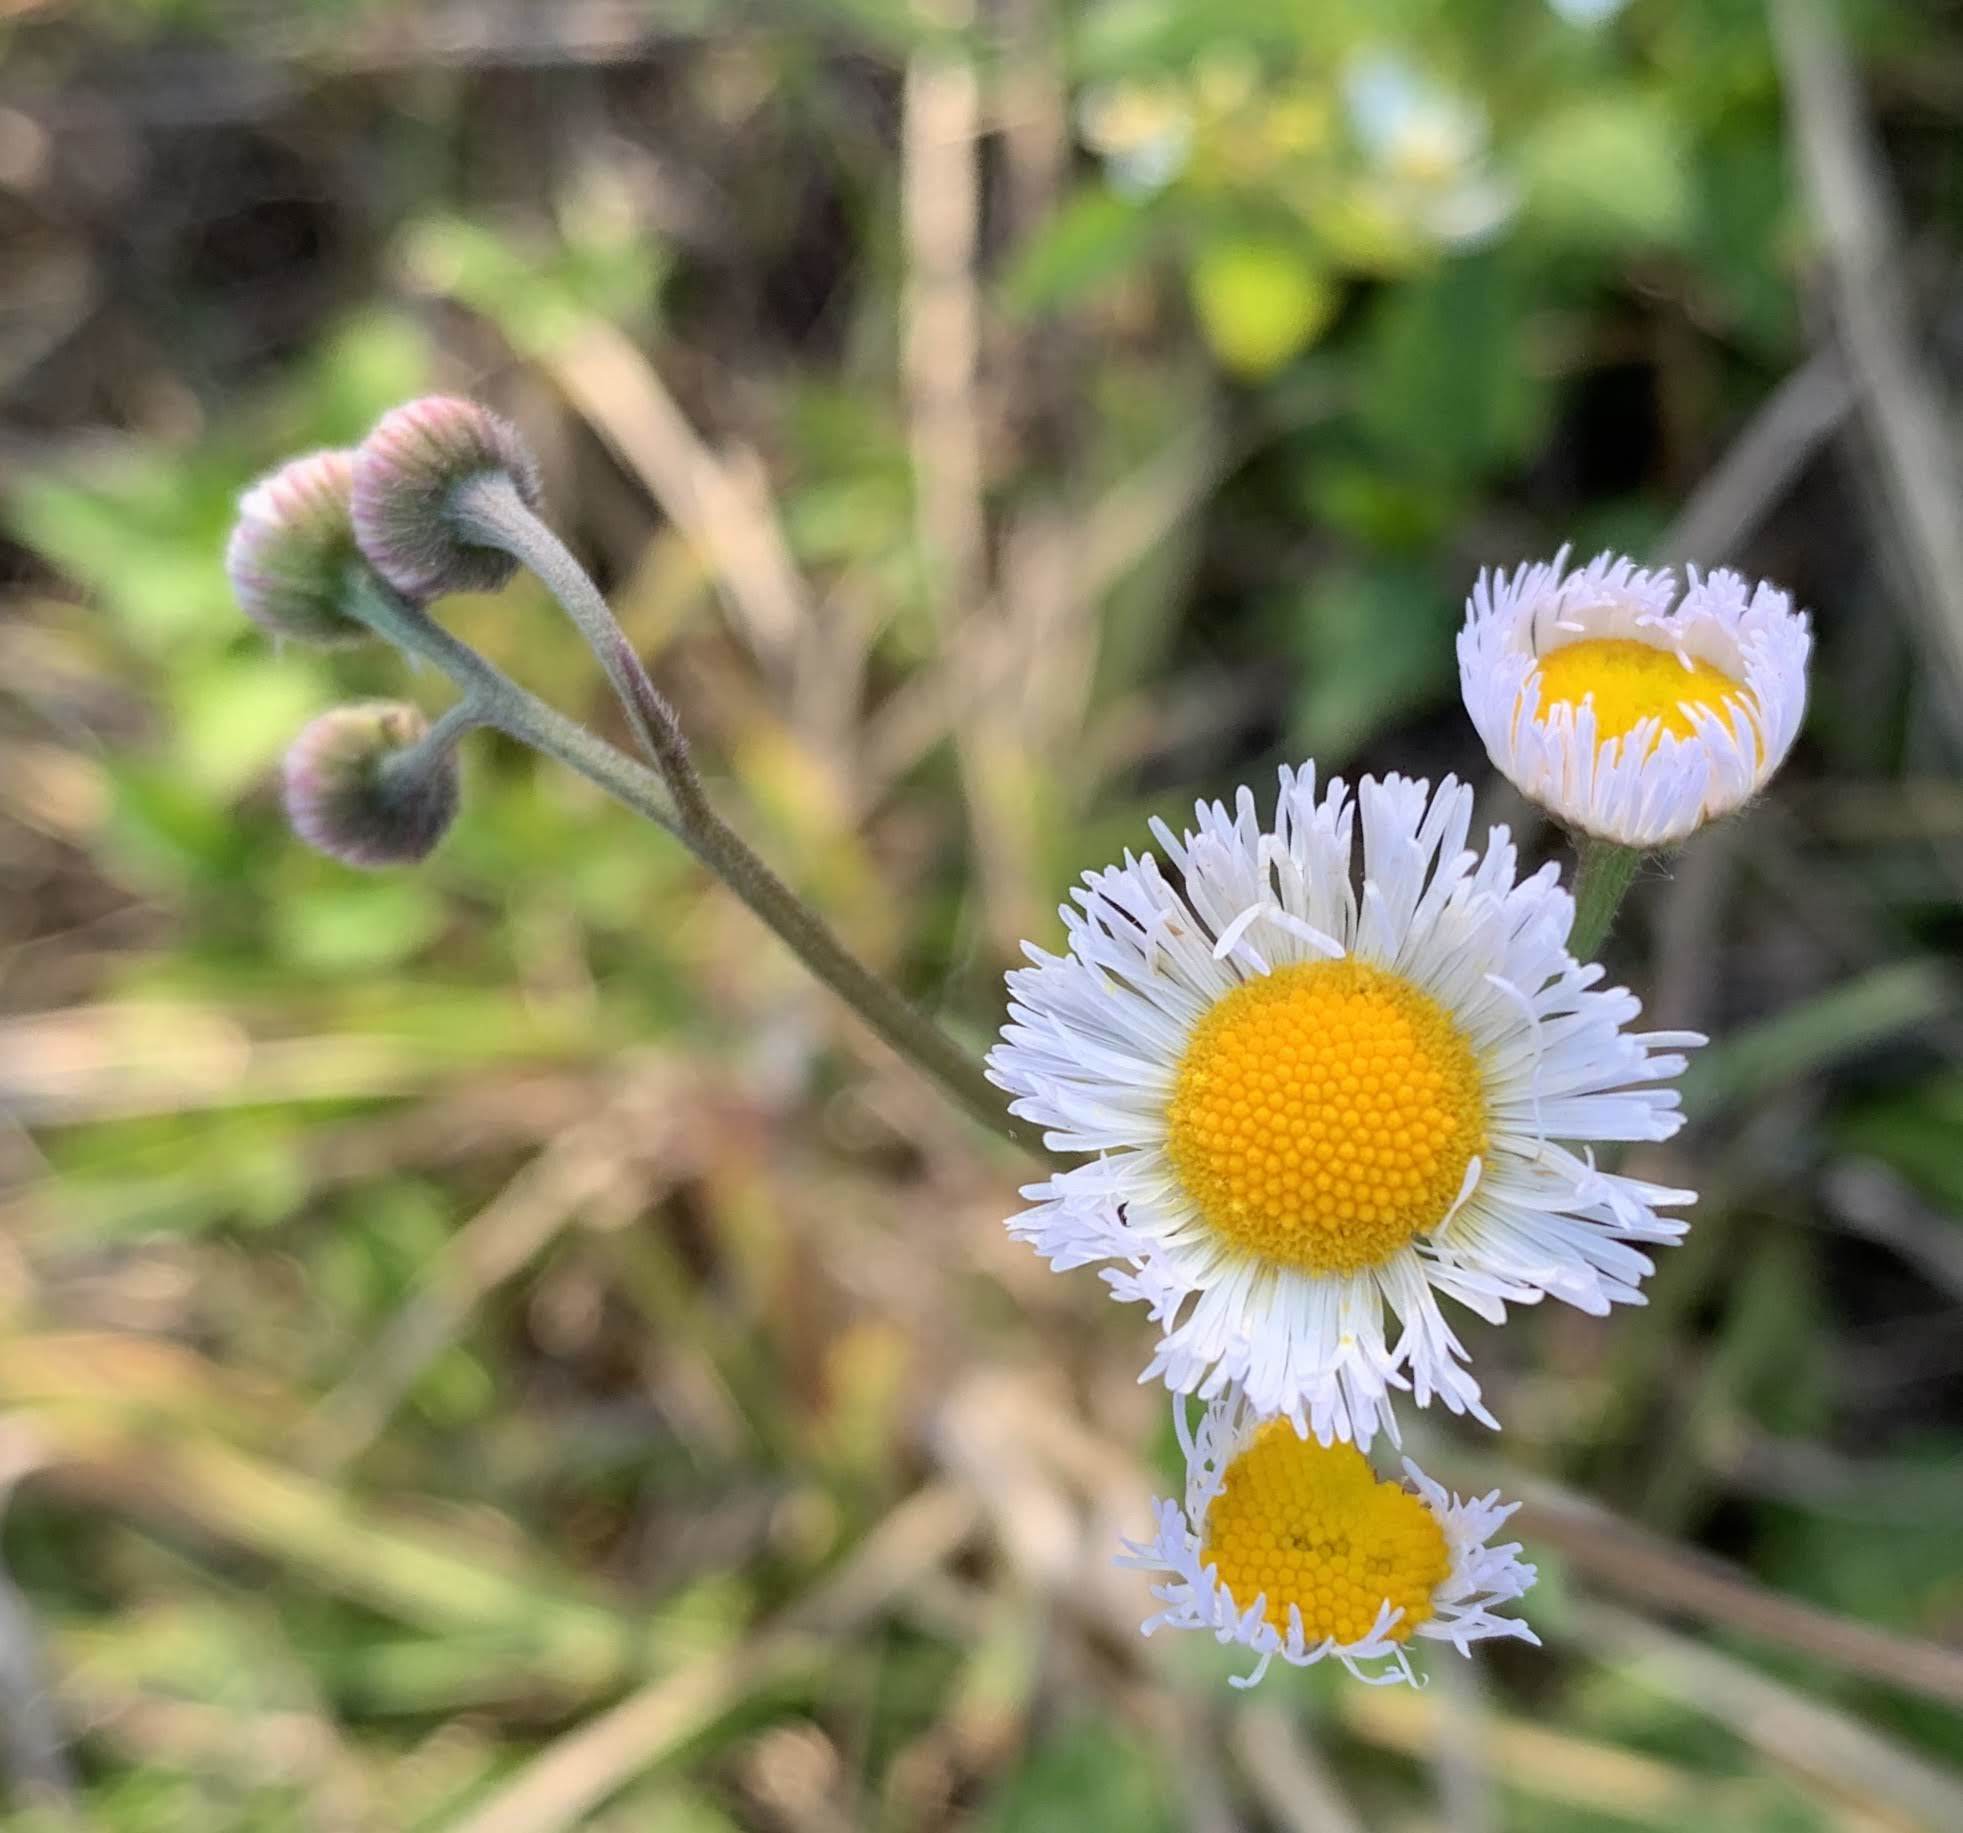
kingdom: Plantae
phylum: Tracheophyta
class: Magnoliopsida
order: Asterales
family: Asteraceae
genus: Erigeron
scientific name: Erigeron quercifolius
